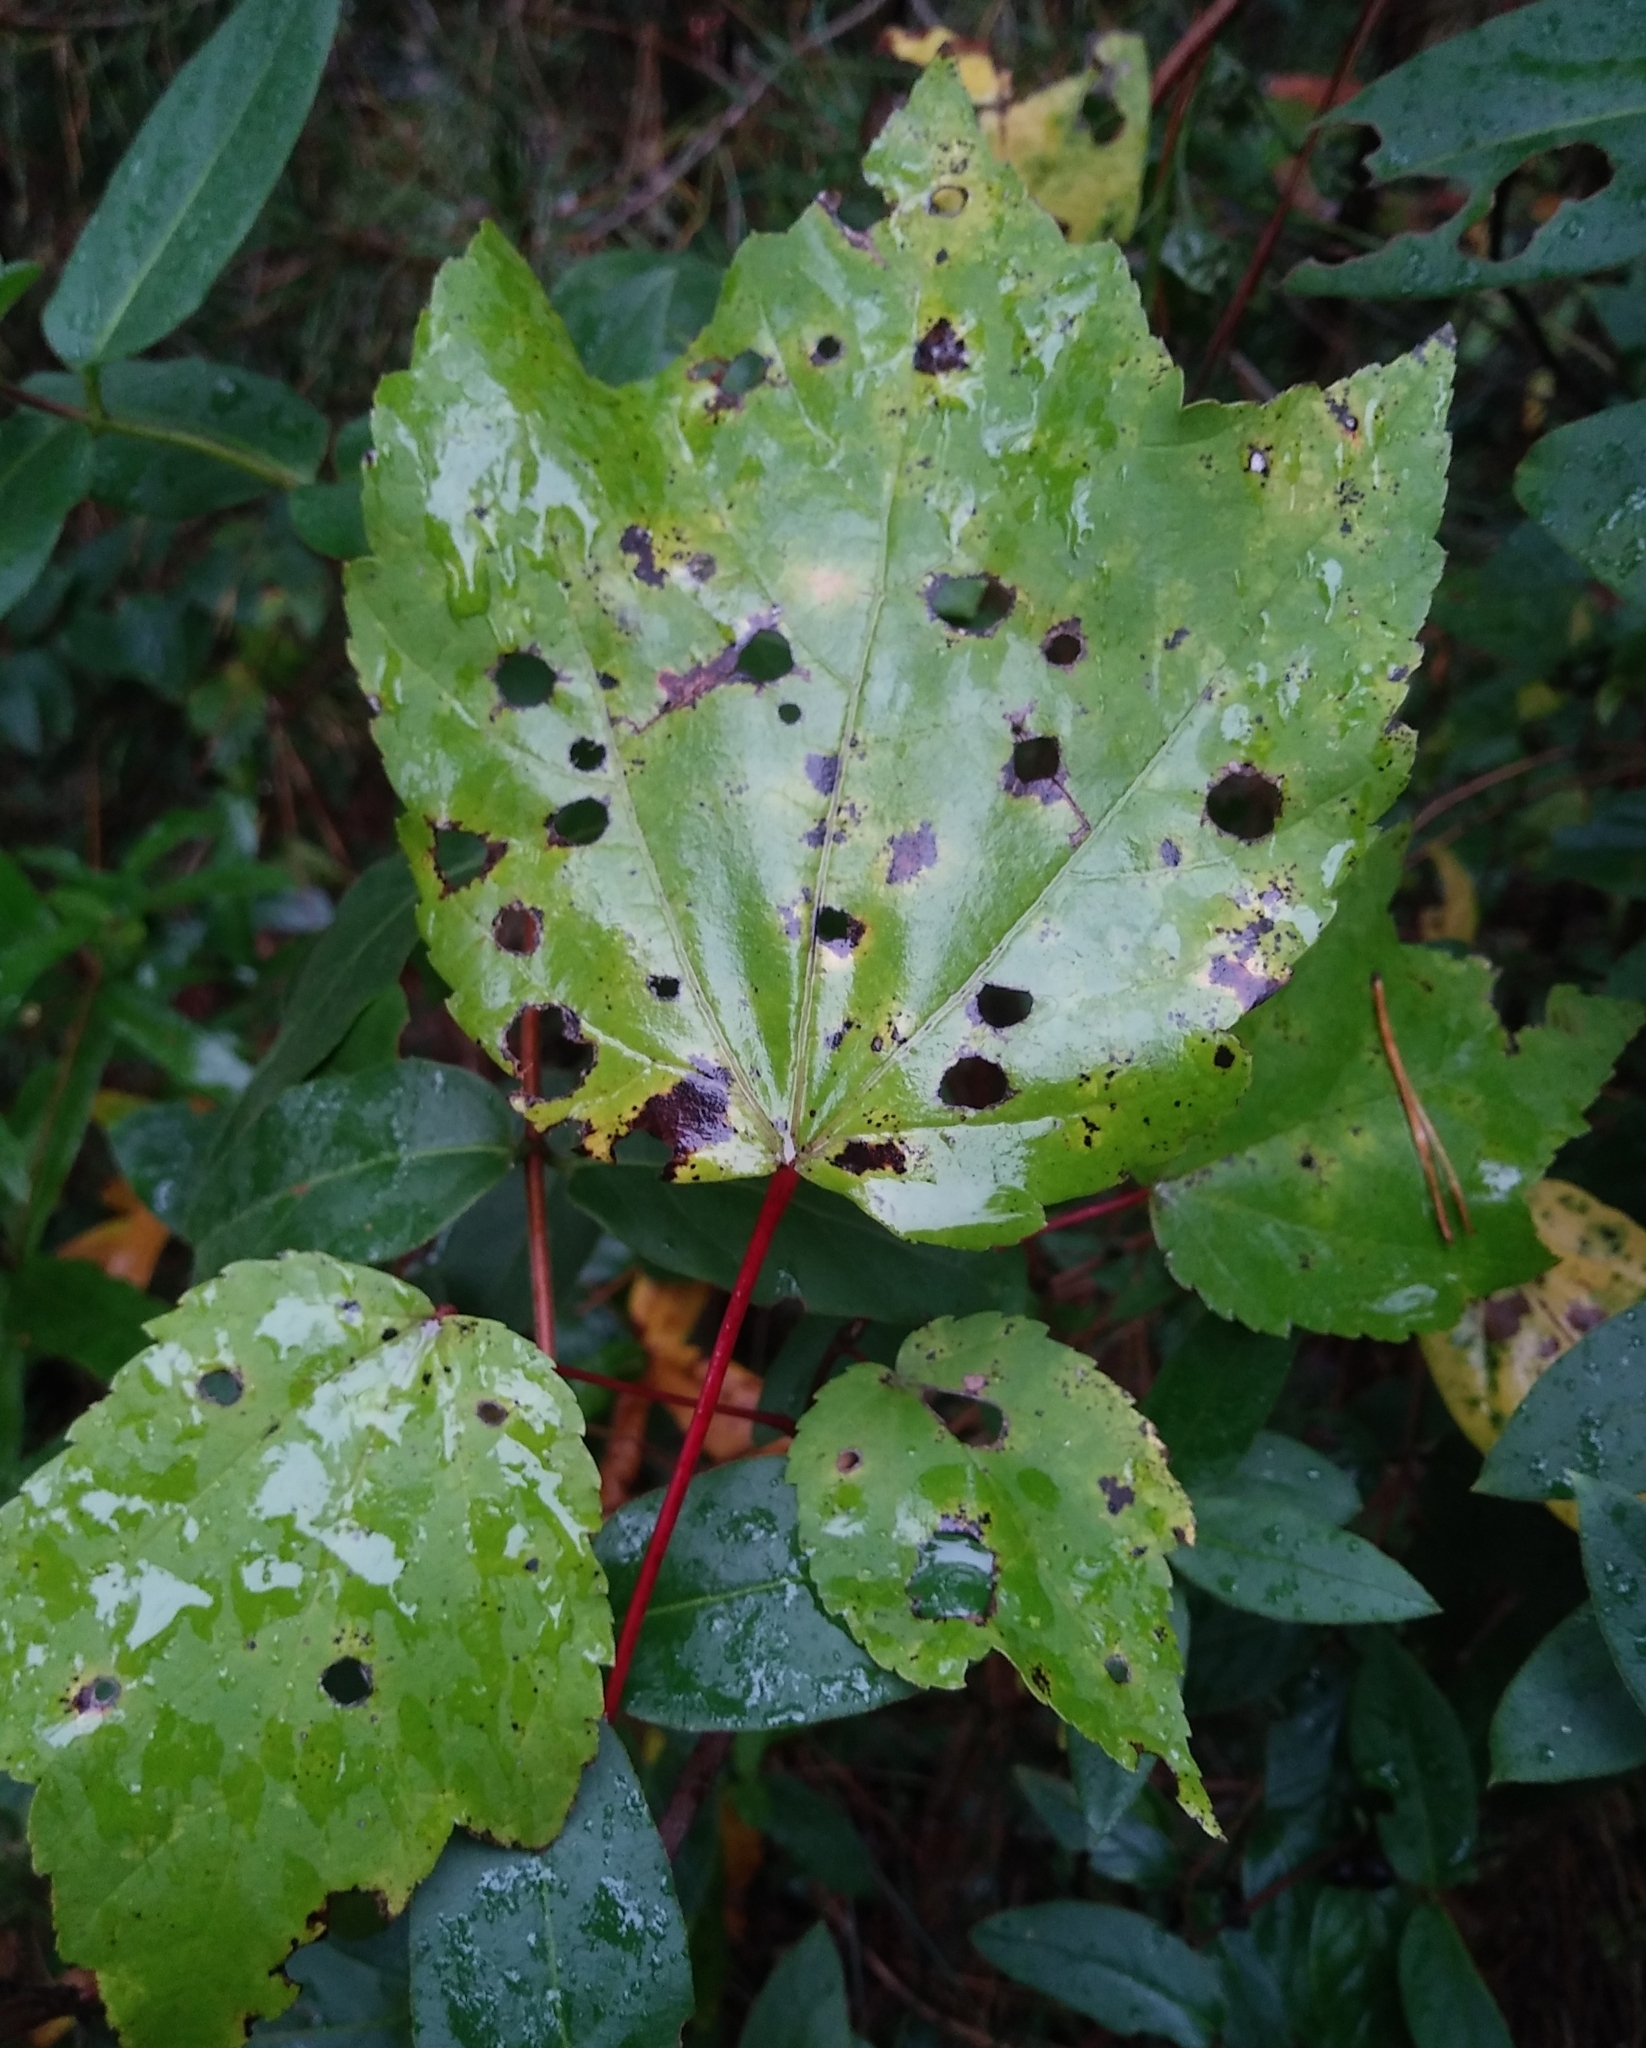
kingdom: Plantae
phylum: Tracheophyta
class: Magnoliopsida
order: Sapindales
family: Sapindaceae
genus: Acer
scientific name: Acer rubrum
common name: Red maple
